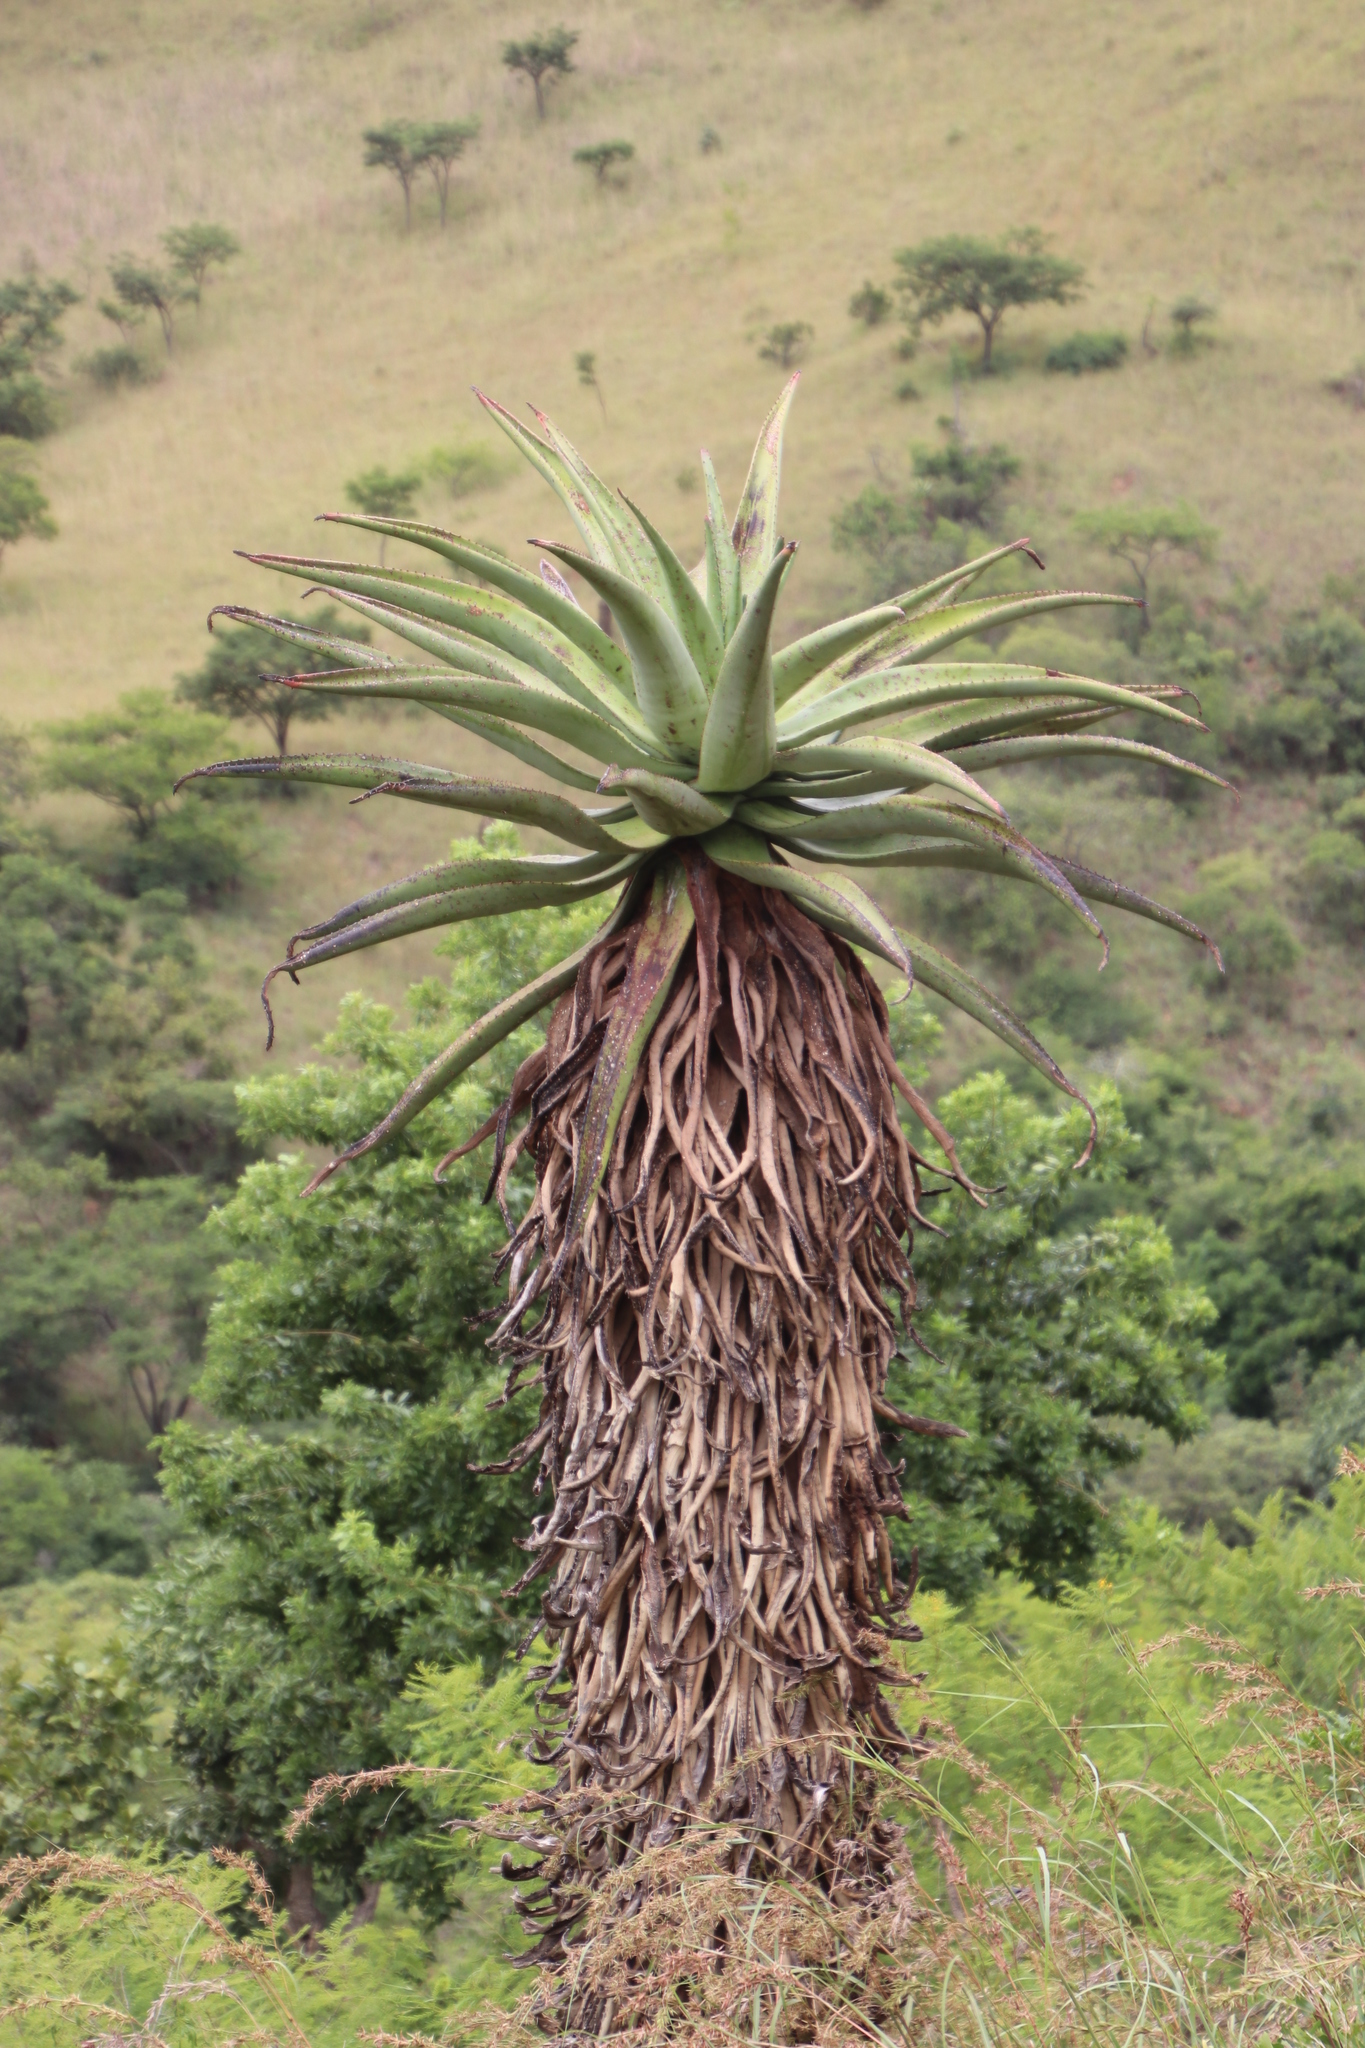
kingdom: Plantae
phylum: Tracheophyta
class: Liliopsida
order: Asparagales
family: Asphodelaceae
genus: Aloe
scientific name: Aloe marlothii
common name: Flat-flowered aloe
